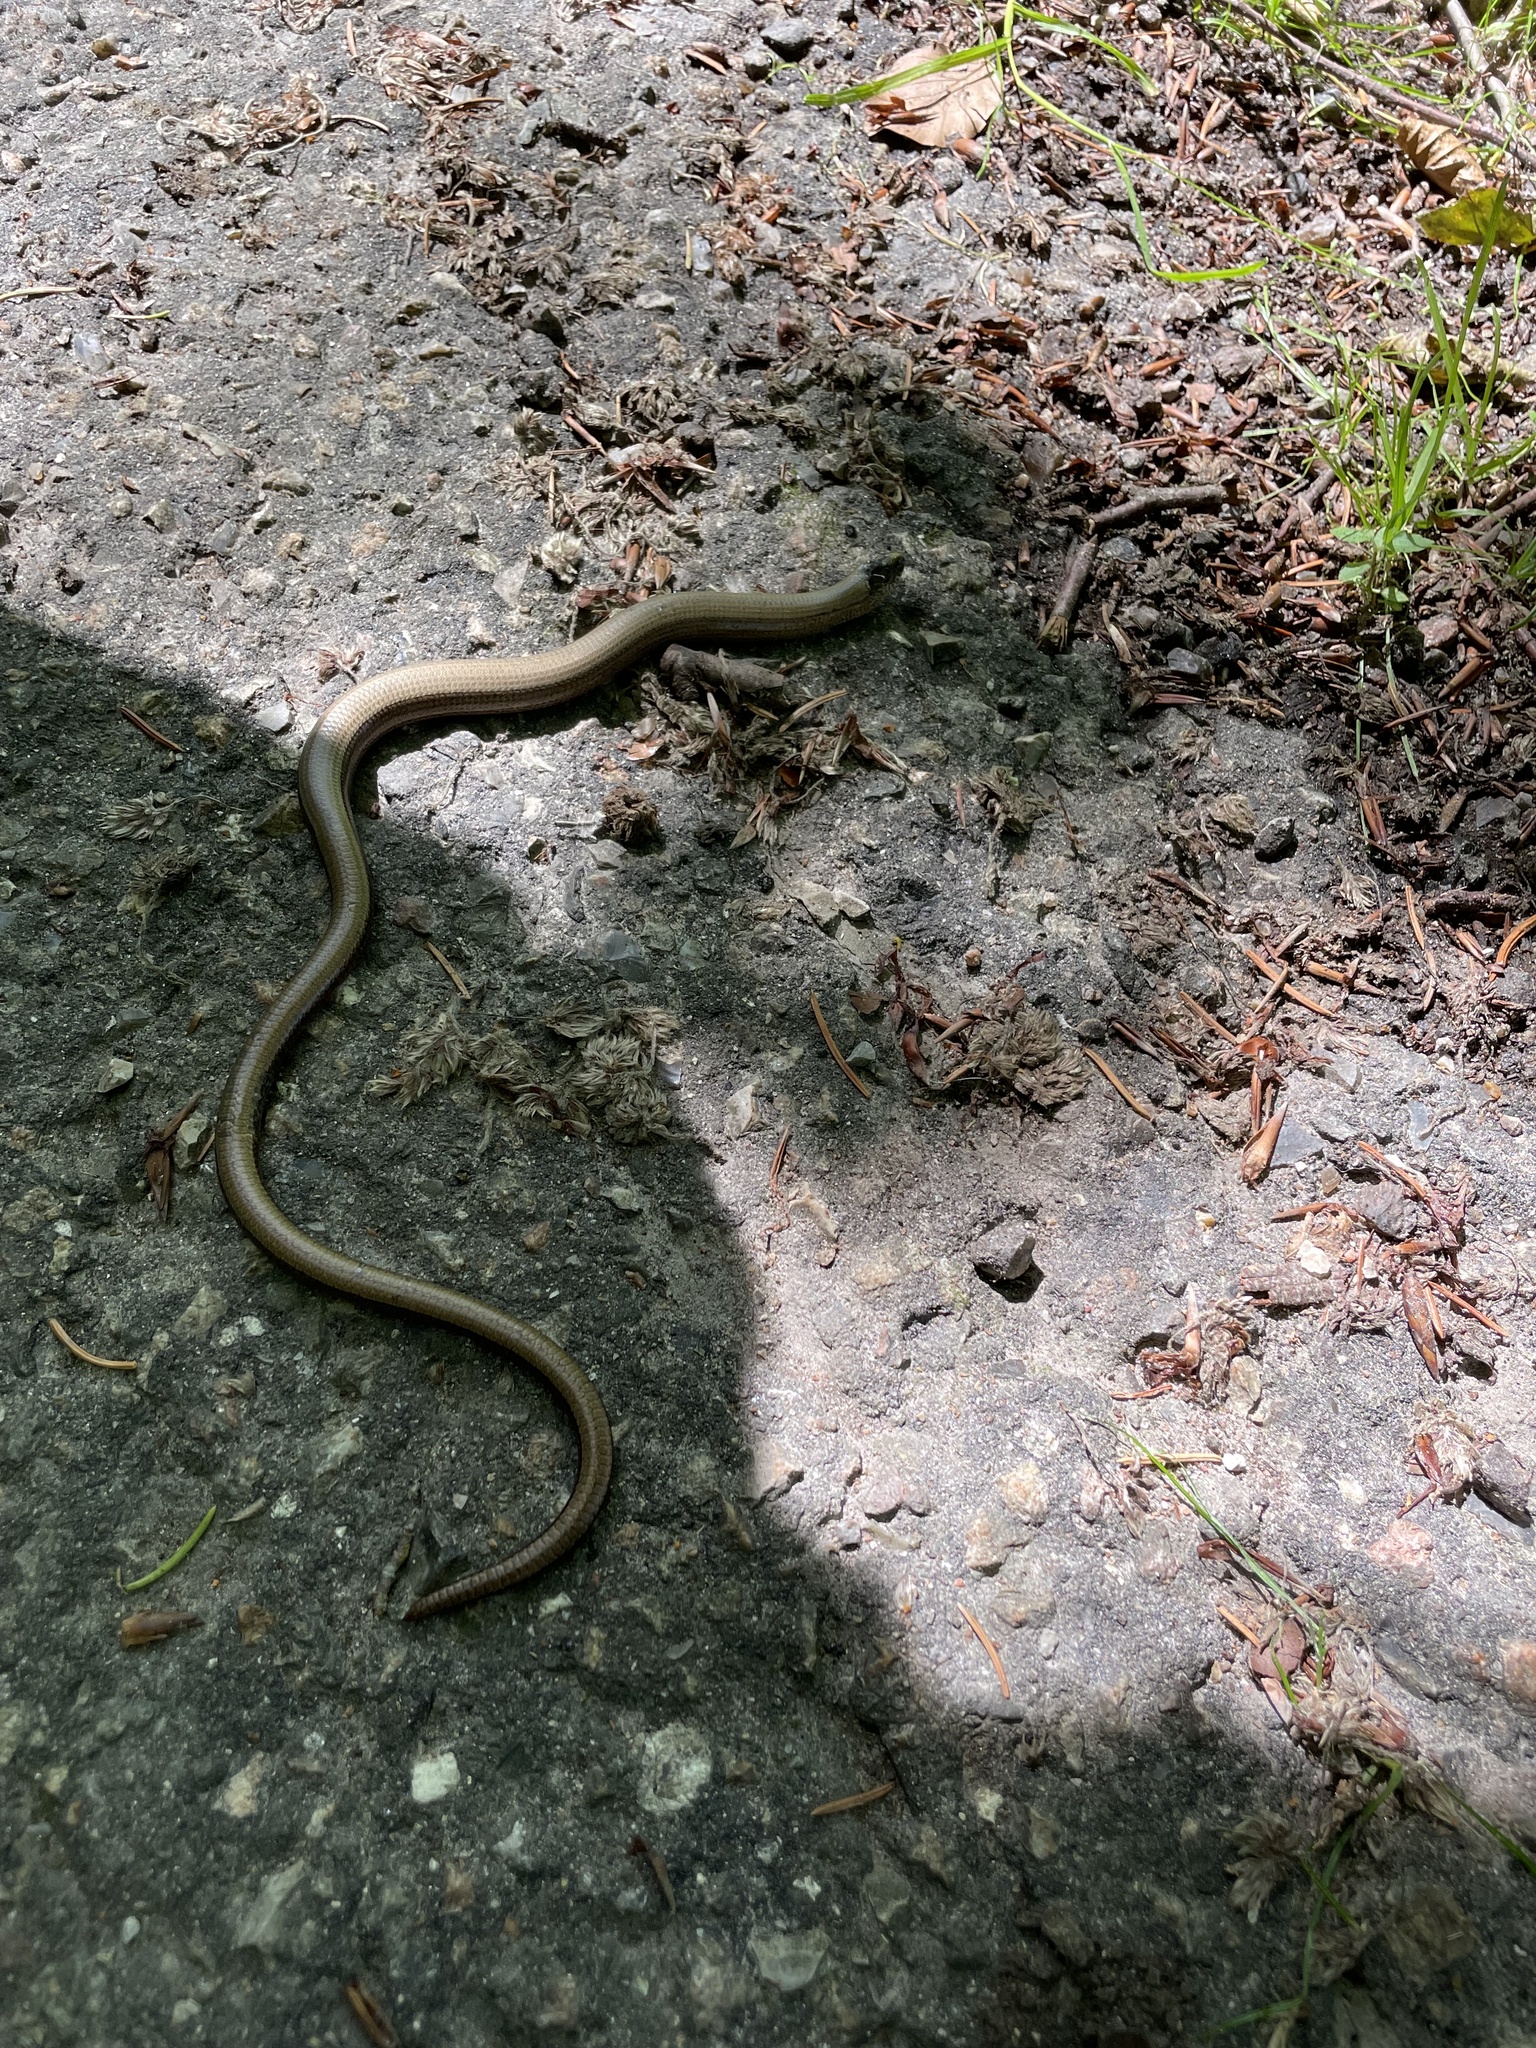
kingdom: Animalia
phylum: Chordata
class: Squamata
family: Anguidae
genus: Anguis
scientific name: Anguis fragilis
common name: Slow worm
